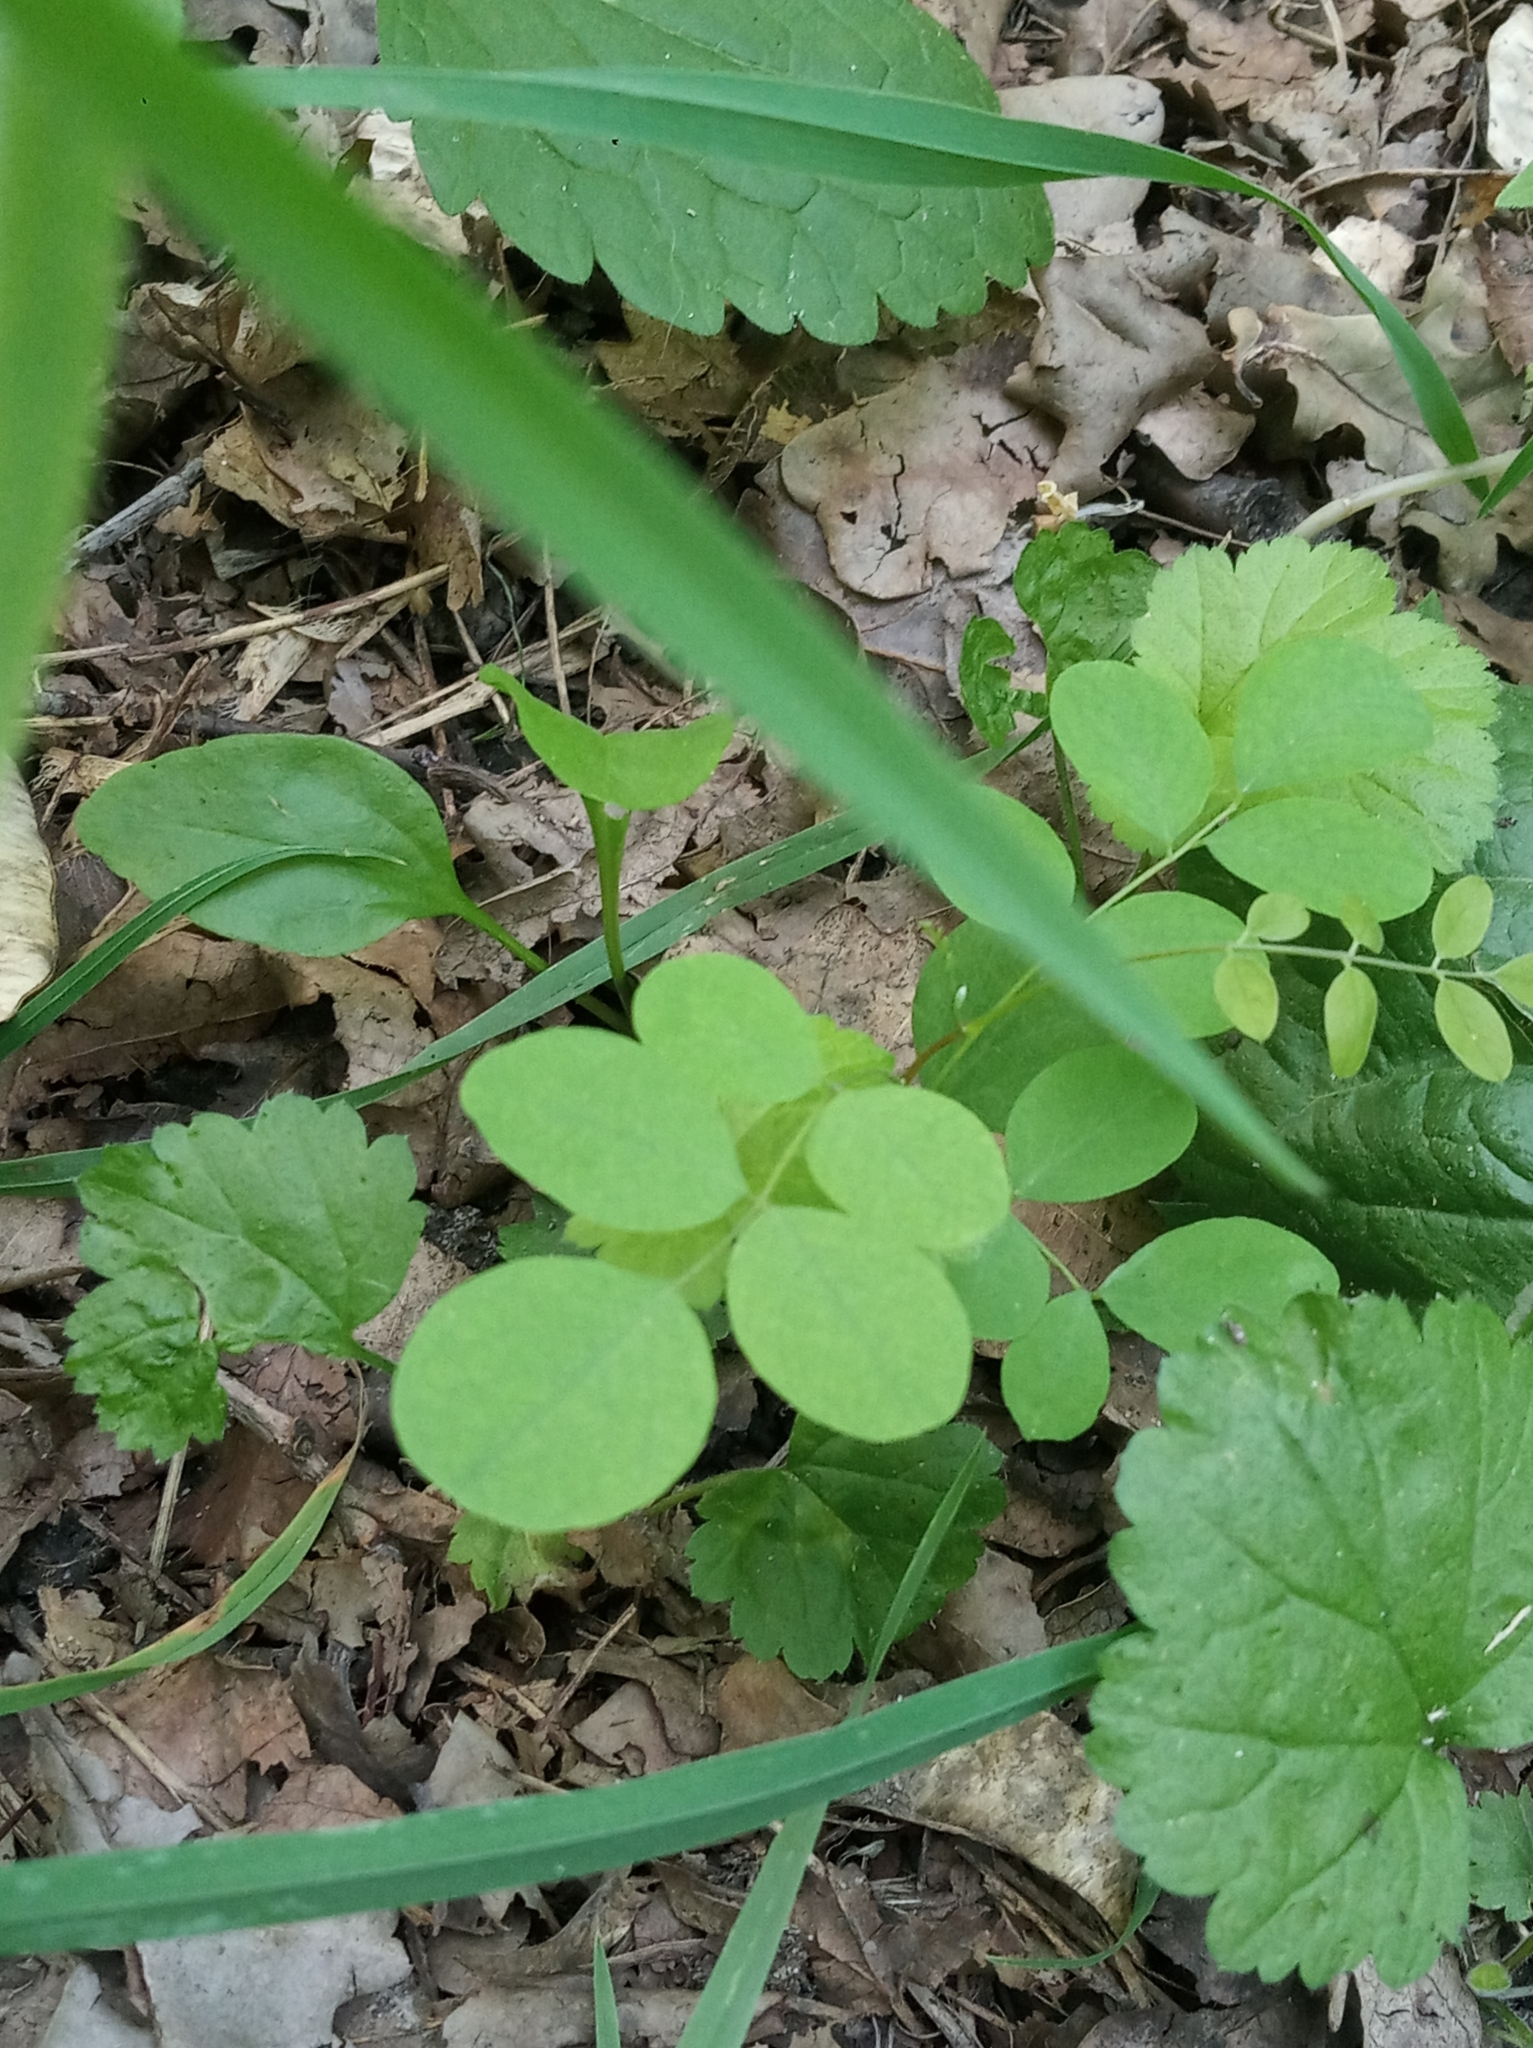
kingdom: Plantae
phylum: Tracheophyta
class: Magnoliopsida
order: Fabales
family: Fabaceae
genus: Astragalus
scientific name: Astragalus glycyphyllos
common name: Wild liquorice
